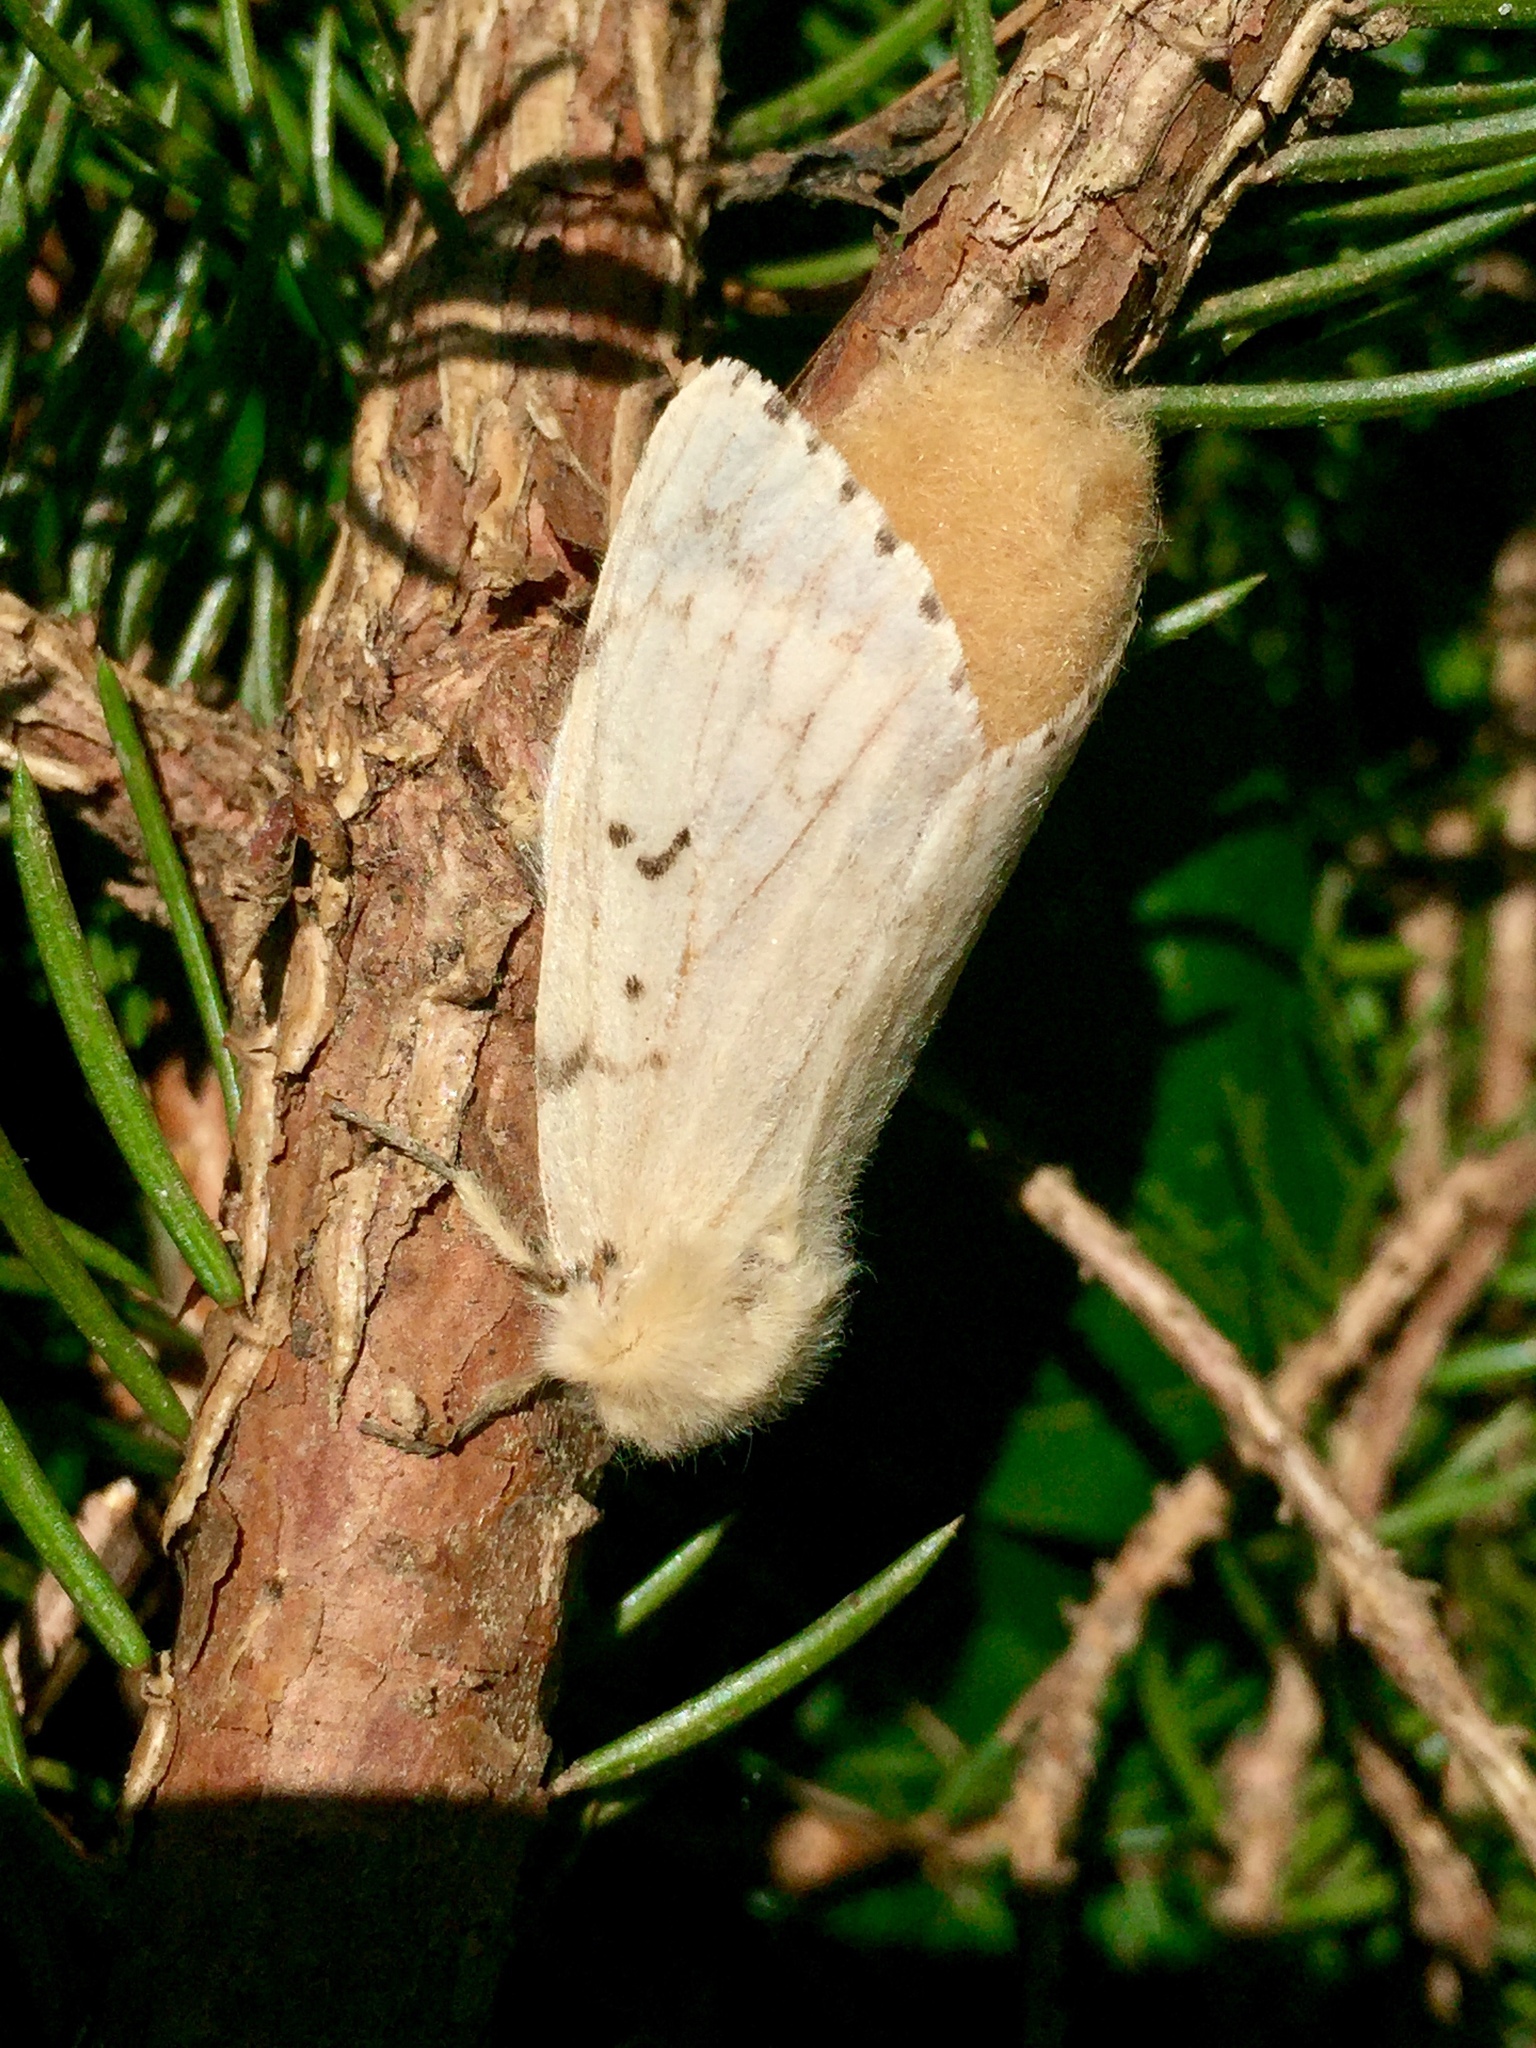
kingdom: Animalia
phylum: Arthropoda
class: Insecta
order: Lepidoptera
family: Erebidae
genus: Lymantria
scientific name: Lymantria dispar
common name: Gypsy moth
